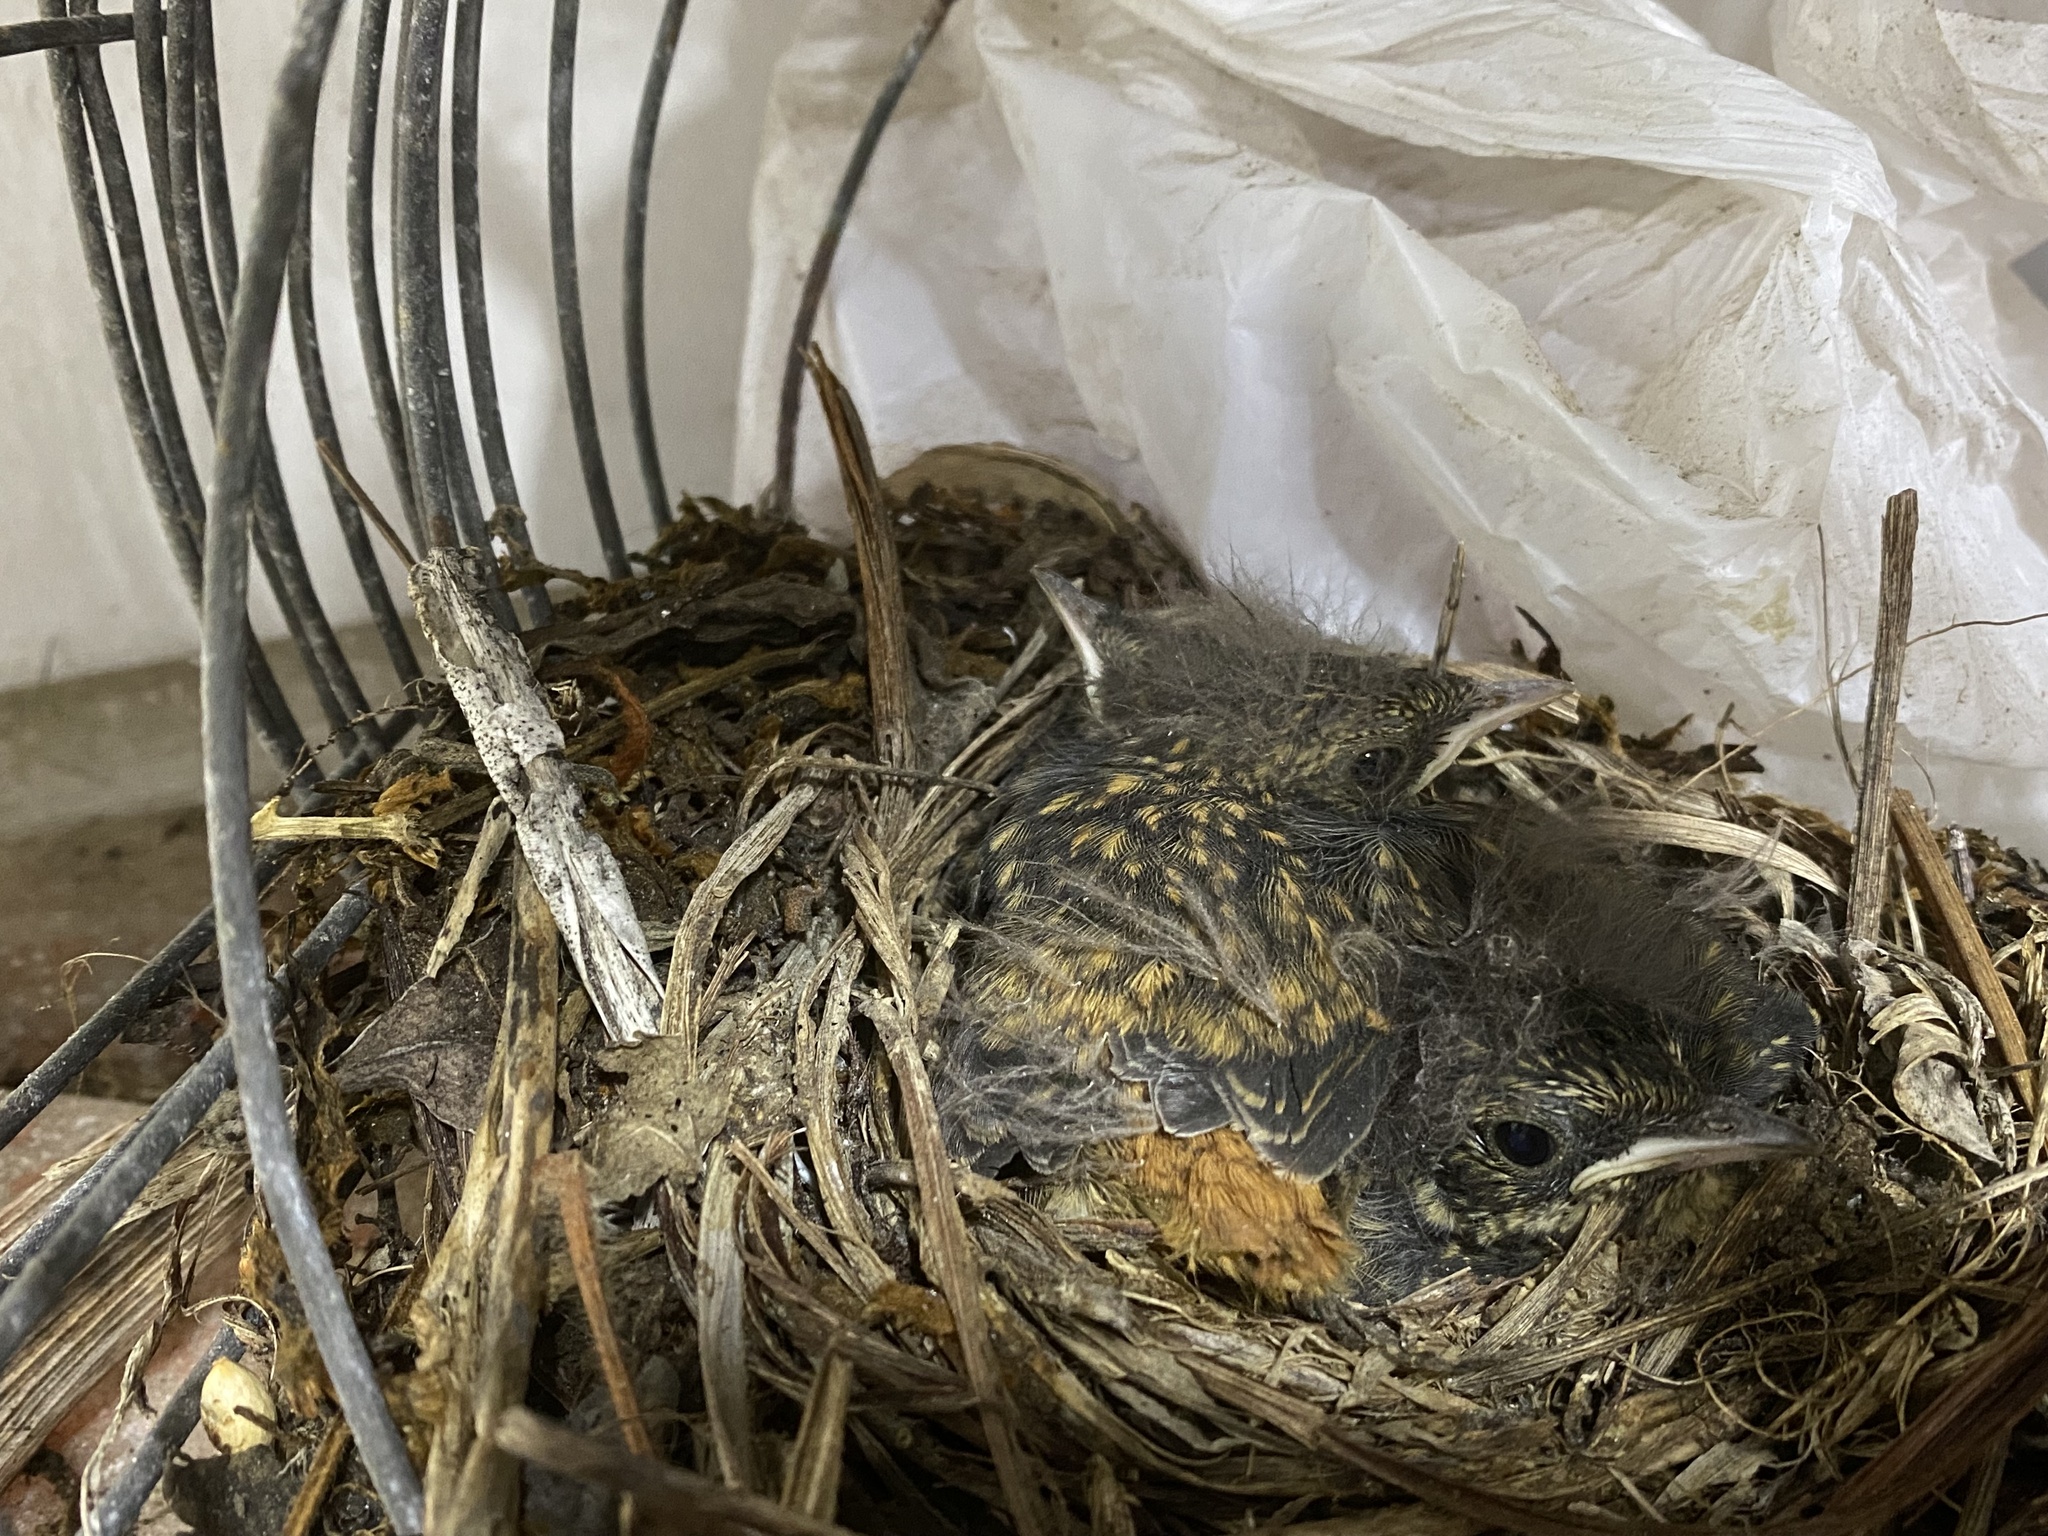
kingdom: Animalia
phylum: Chordata
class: Aves
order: Passeriformes
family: Muscicapidae
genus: Cossypha
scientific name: Cossypha caffra
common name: Cape robin-chat
